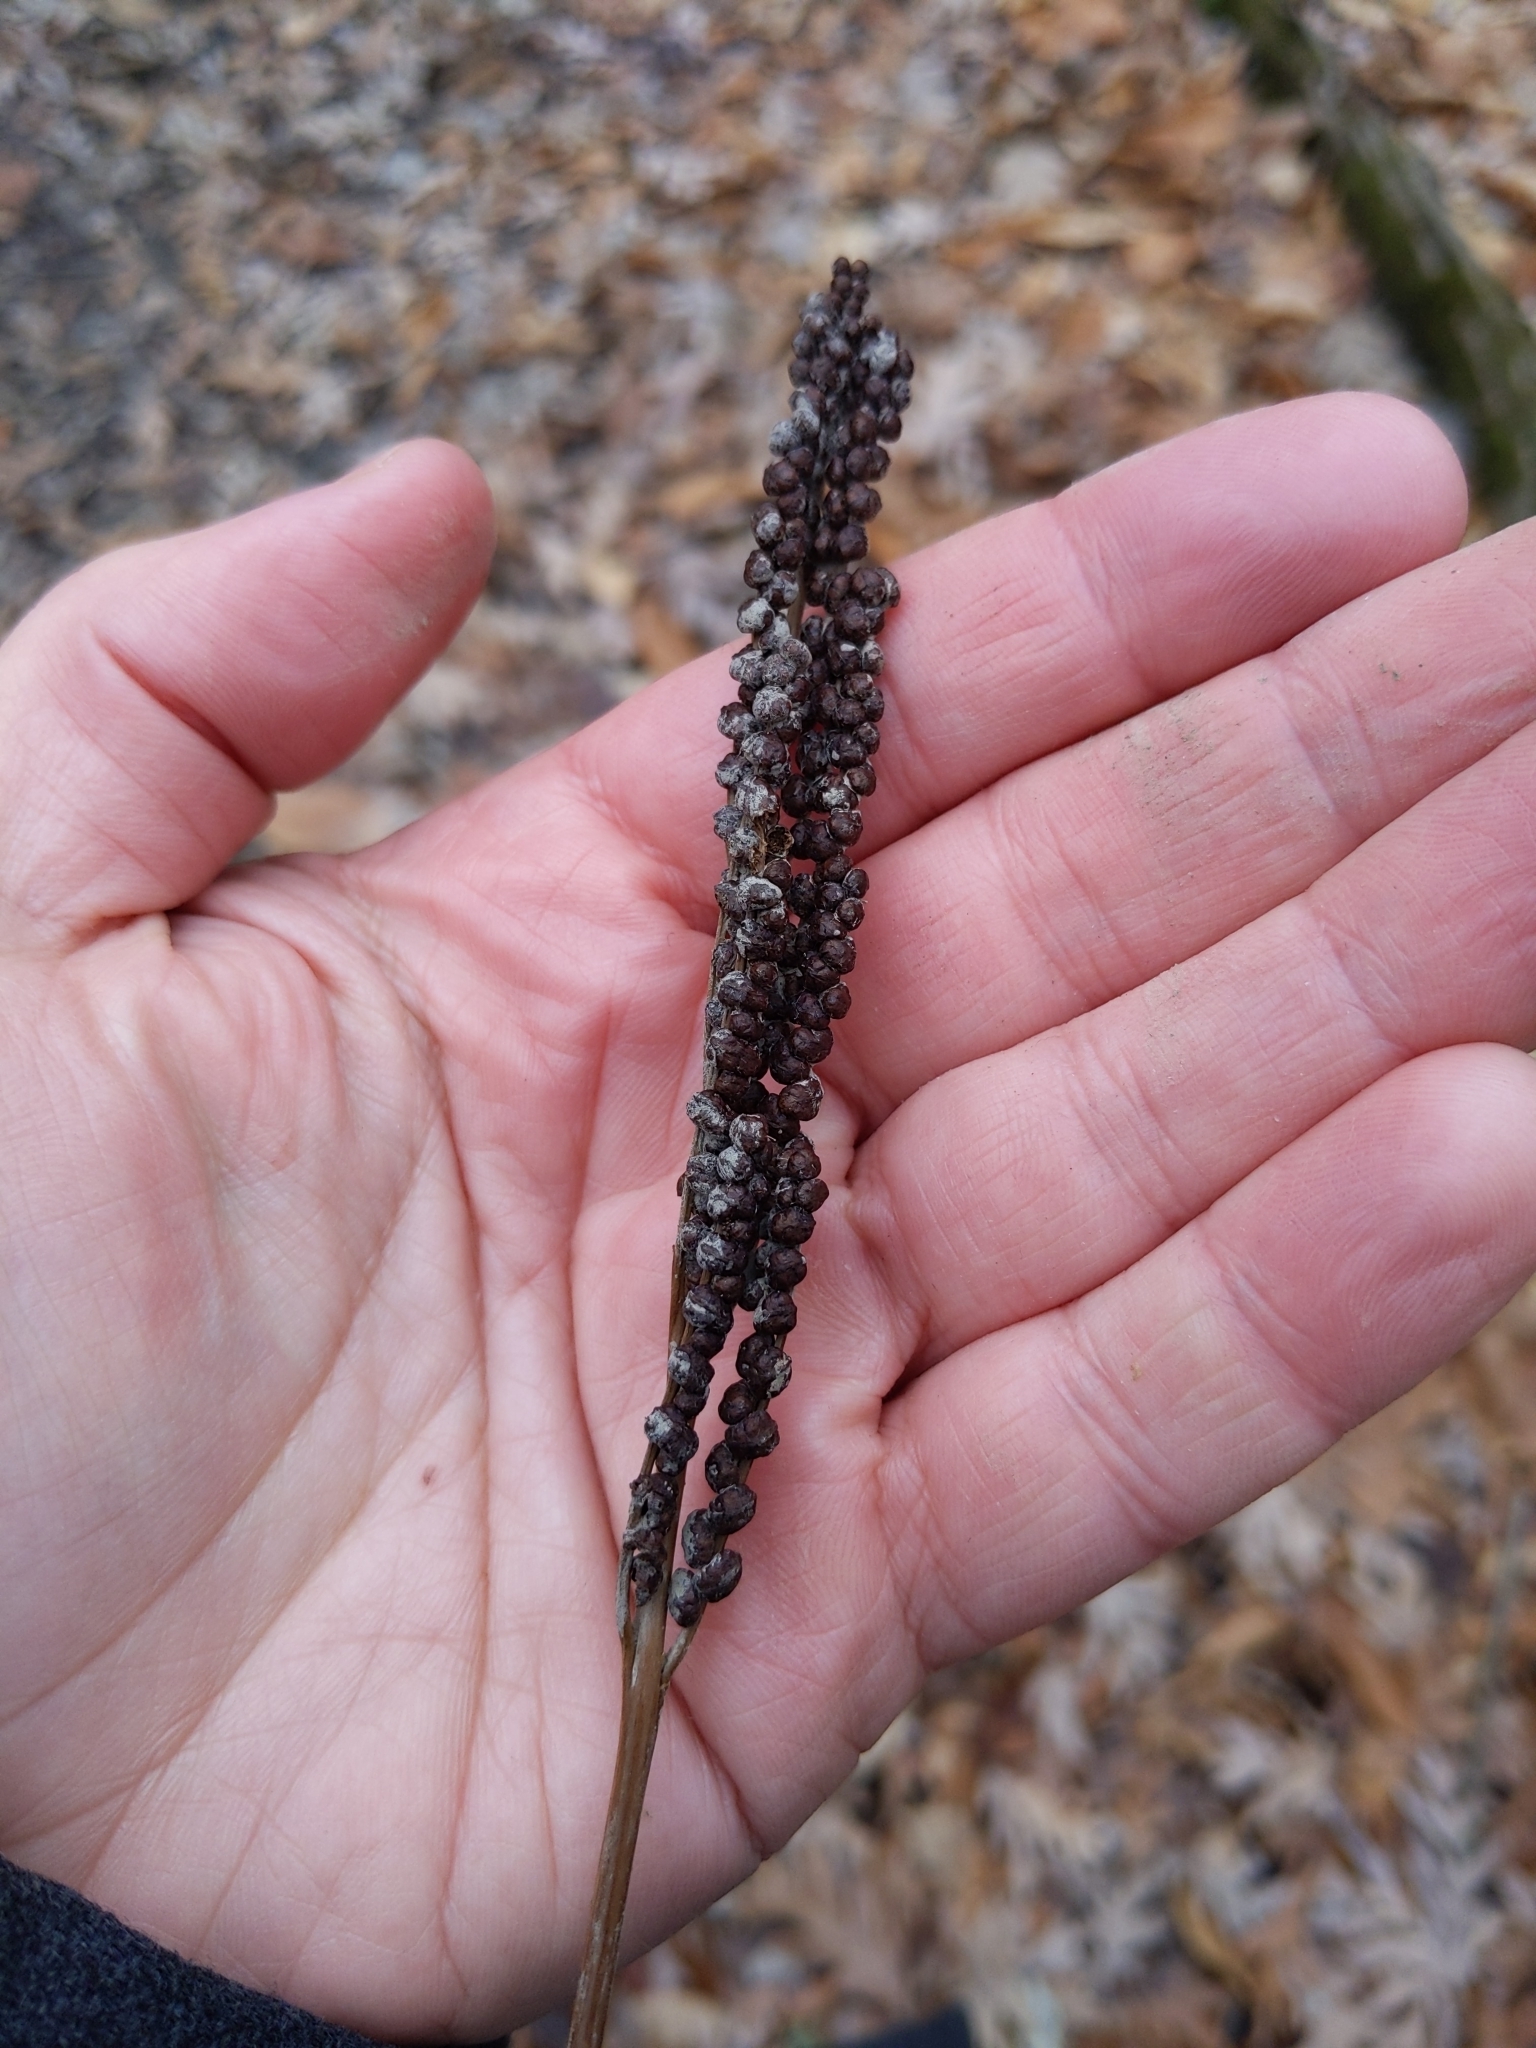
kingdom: Plantae
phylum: Tracheophyta
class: Polypodiopsida
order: Polypodiales
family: Onocleaceae
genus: Onoclea
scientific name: Onoclea sensibilis
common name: Sensitive fern
